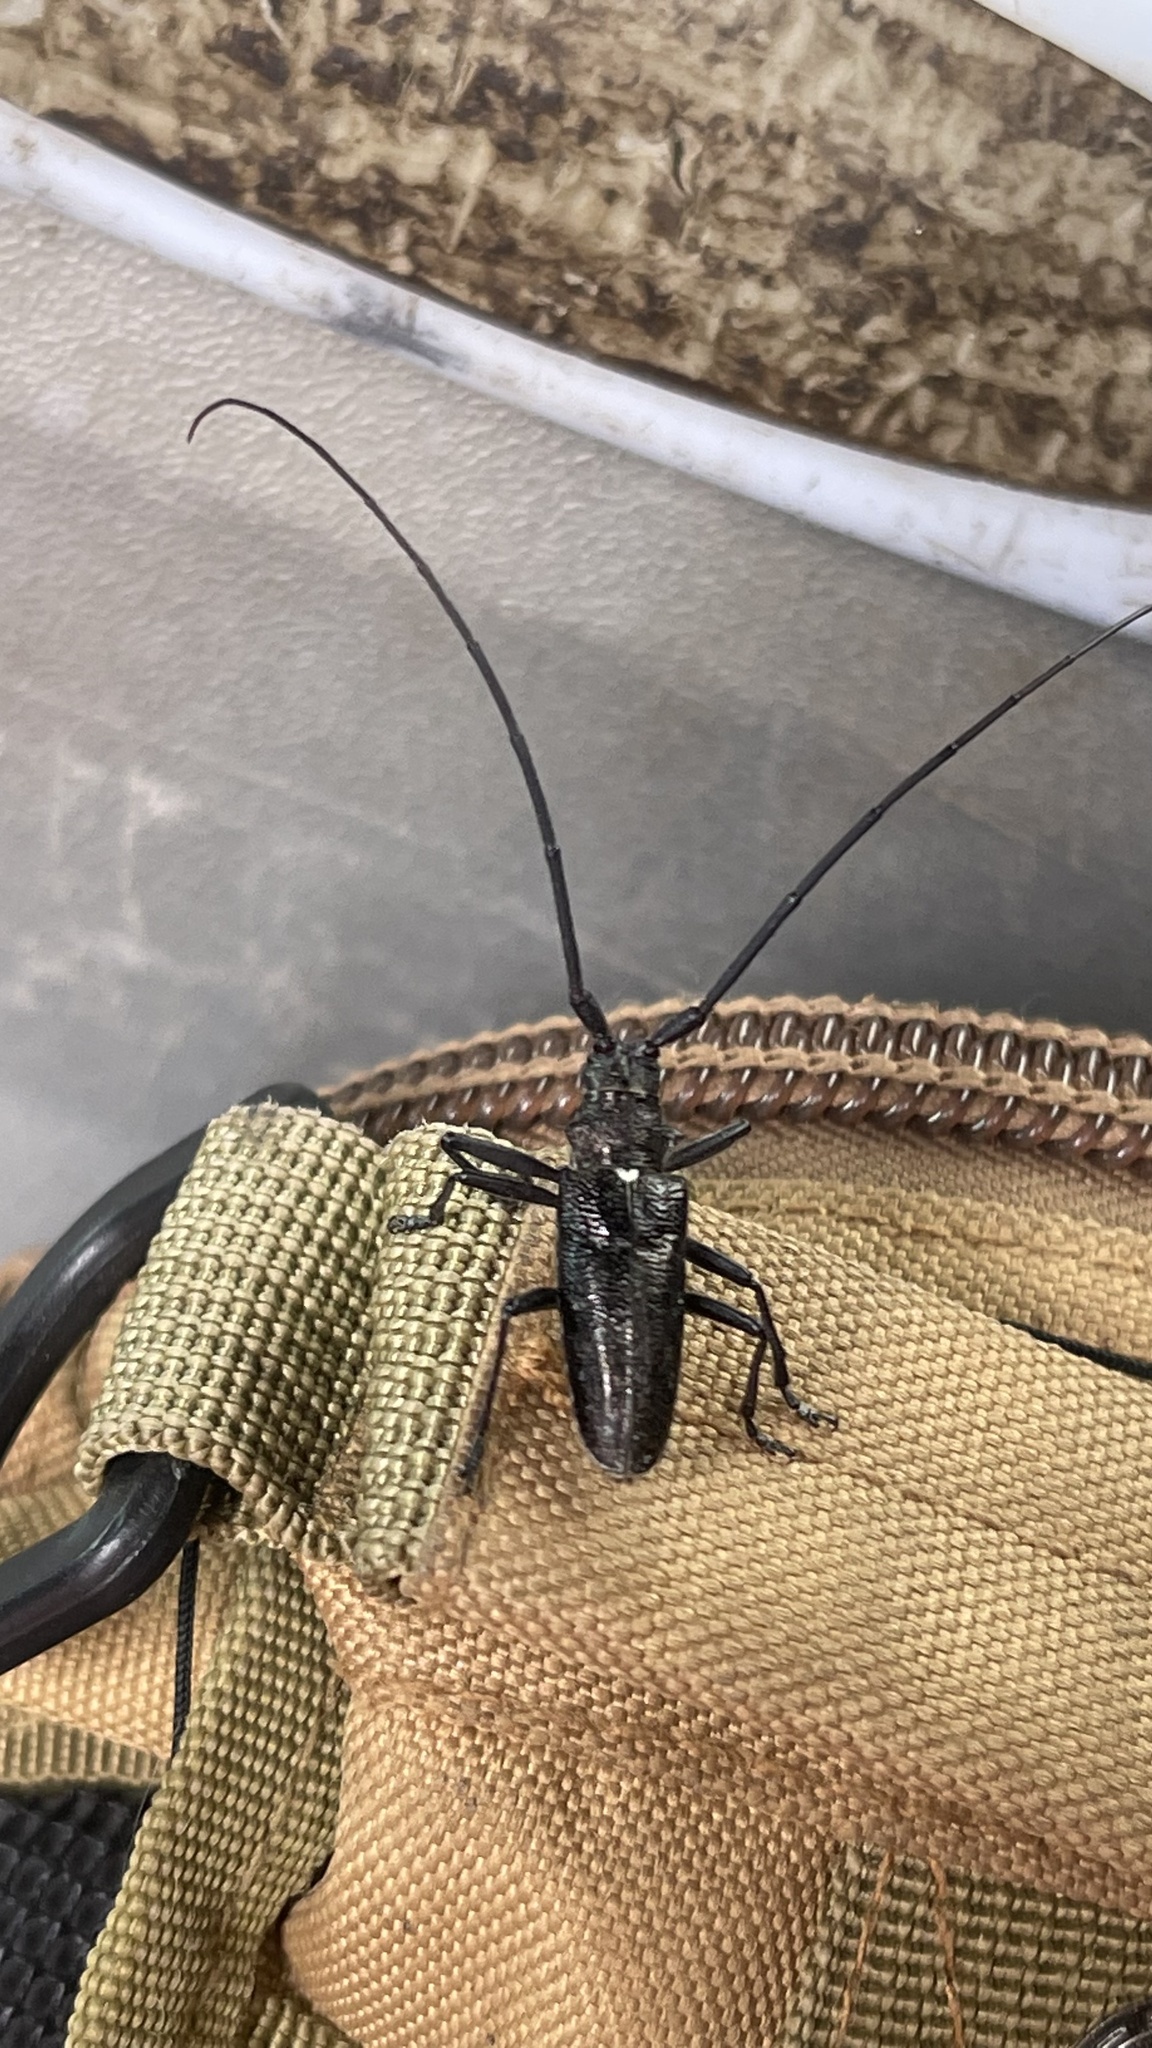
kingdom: Animalia
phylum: Arthropoda
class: Insecta
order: Coleoptera
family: Cerambycidae
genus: Monochamus
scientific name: Monochamus scutellatus
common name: White-spotted sawyer beetle
